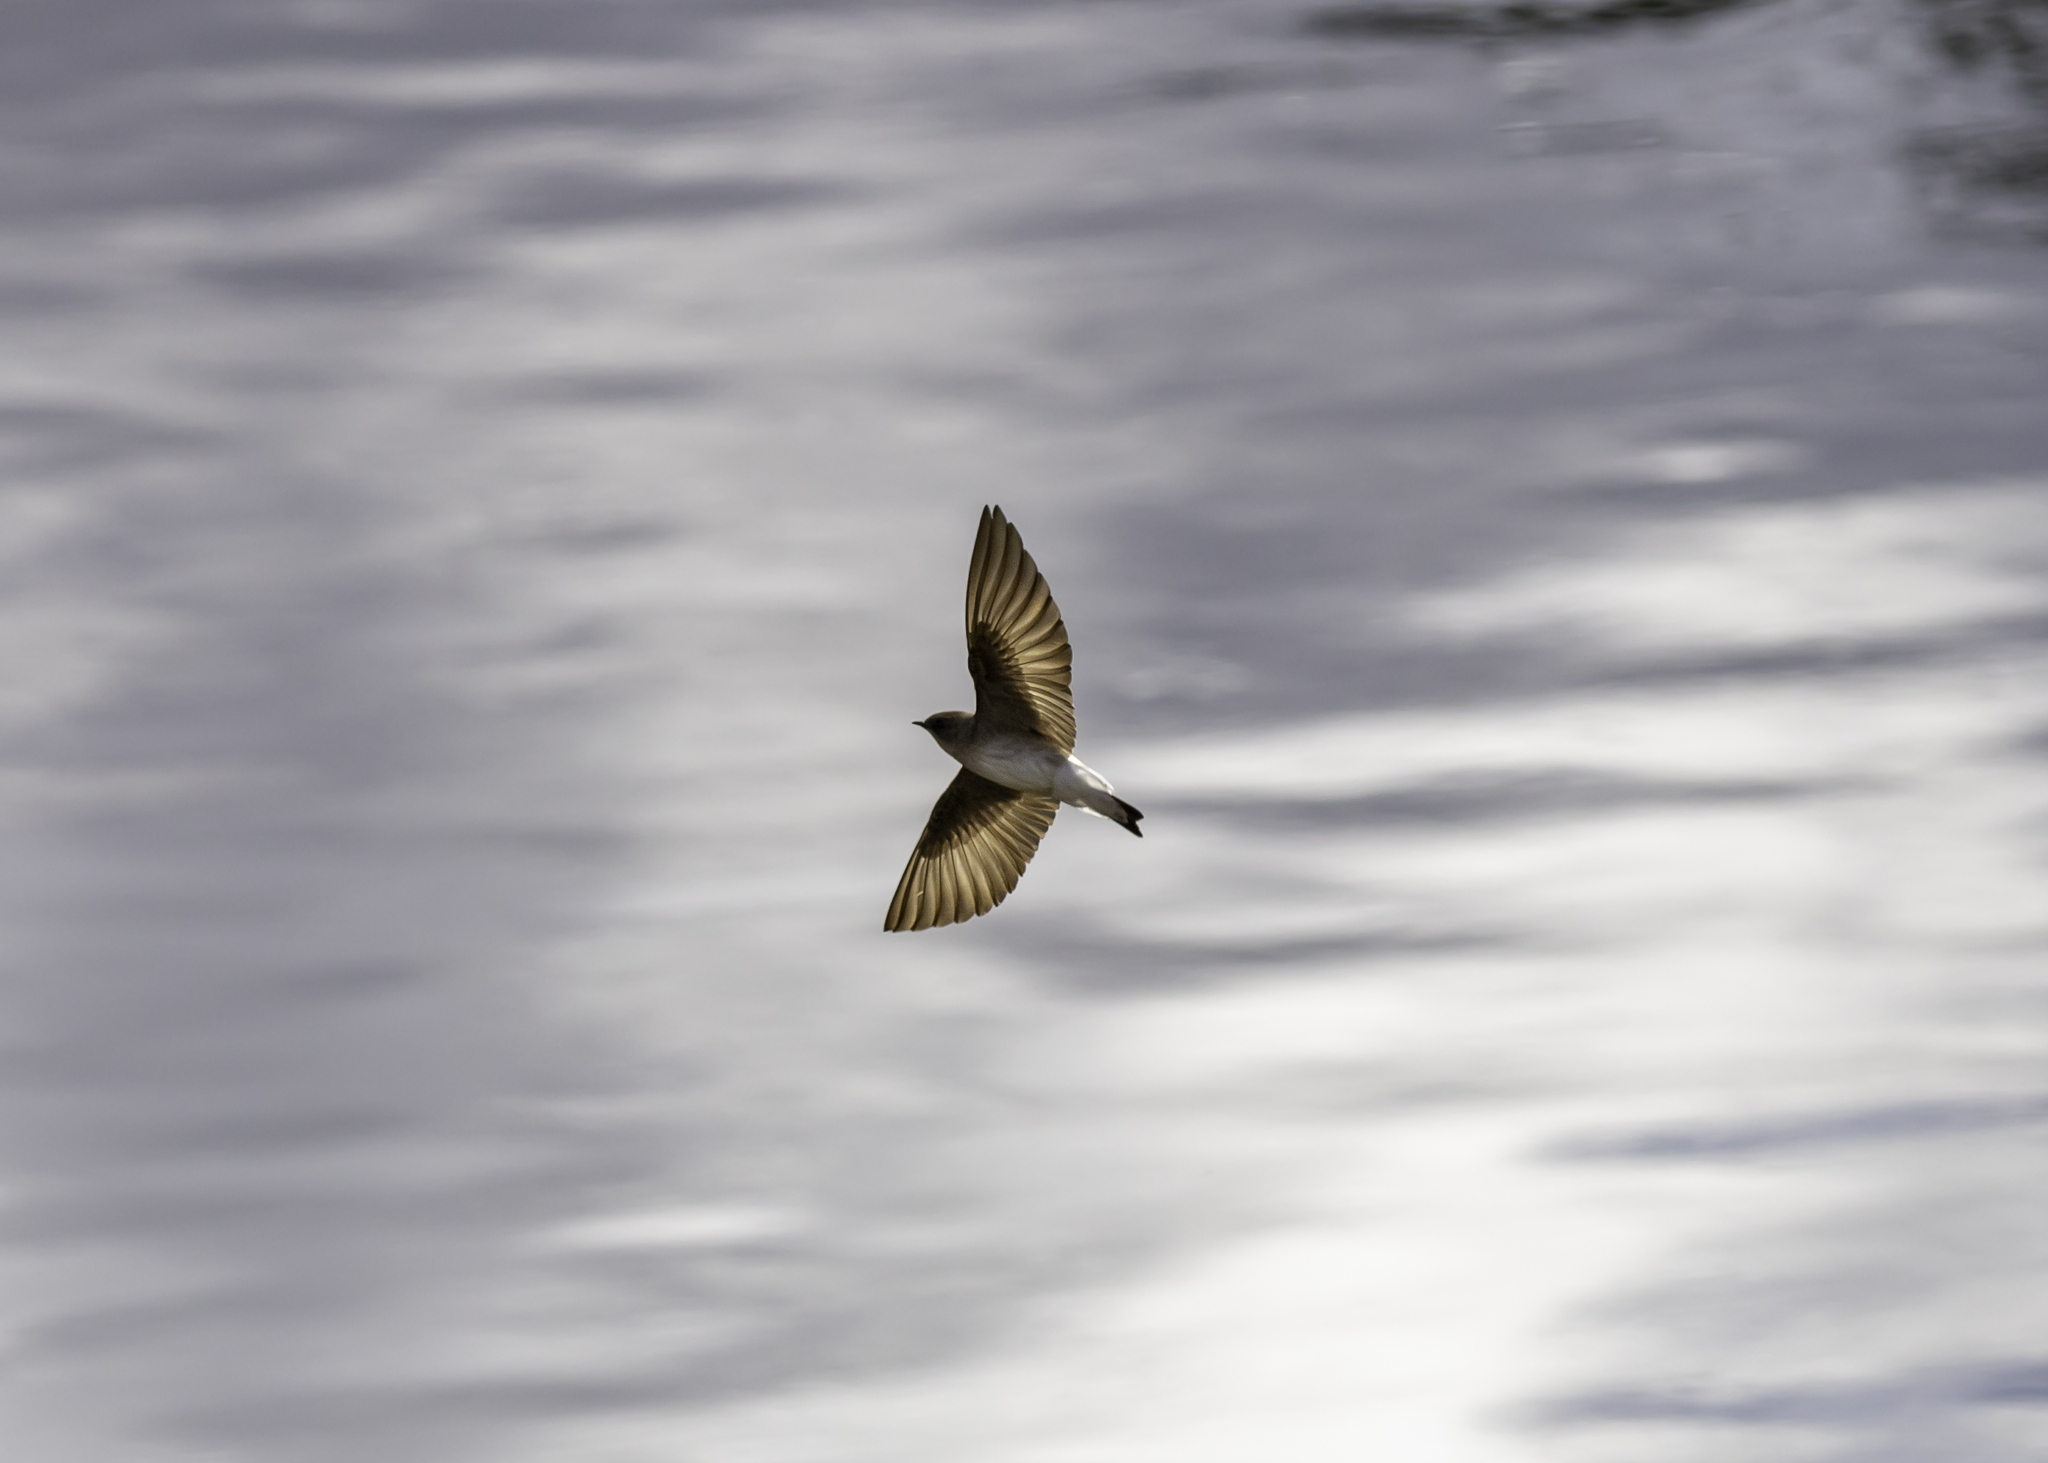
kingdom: Animalia
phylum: Chordata
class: Aves
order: Passeriformes
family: Hirundinidae
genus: Stelgidopteryx
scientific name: Stelgidopteryx serripennis
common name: Northern rough-winged swallow
